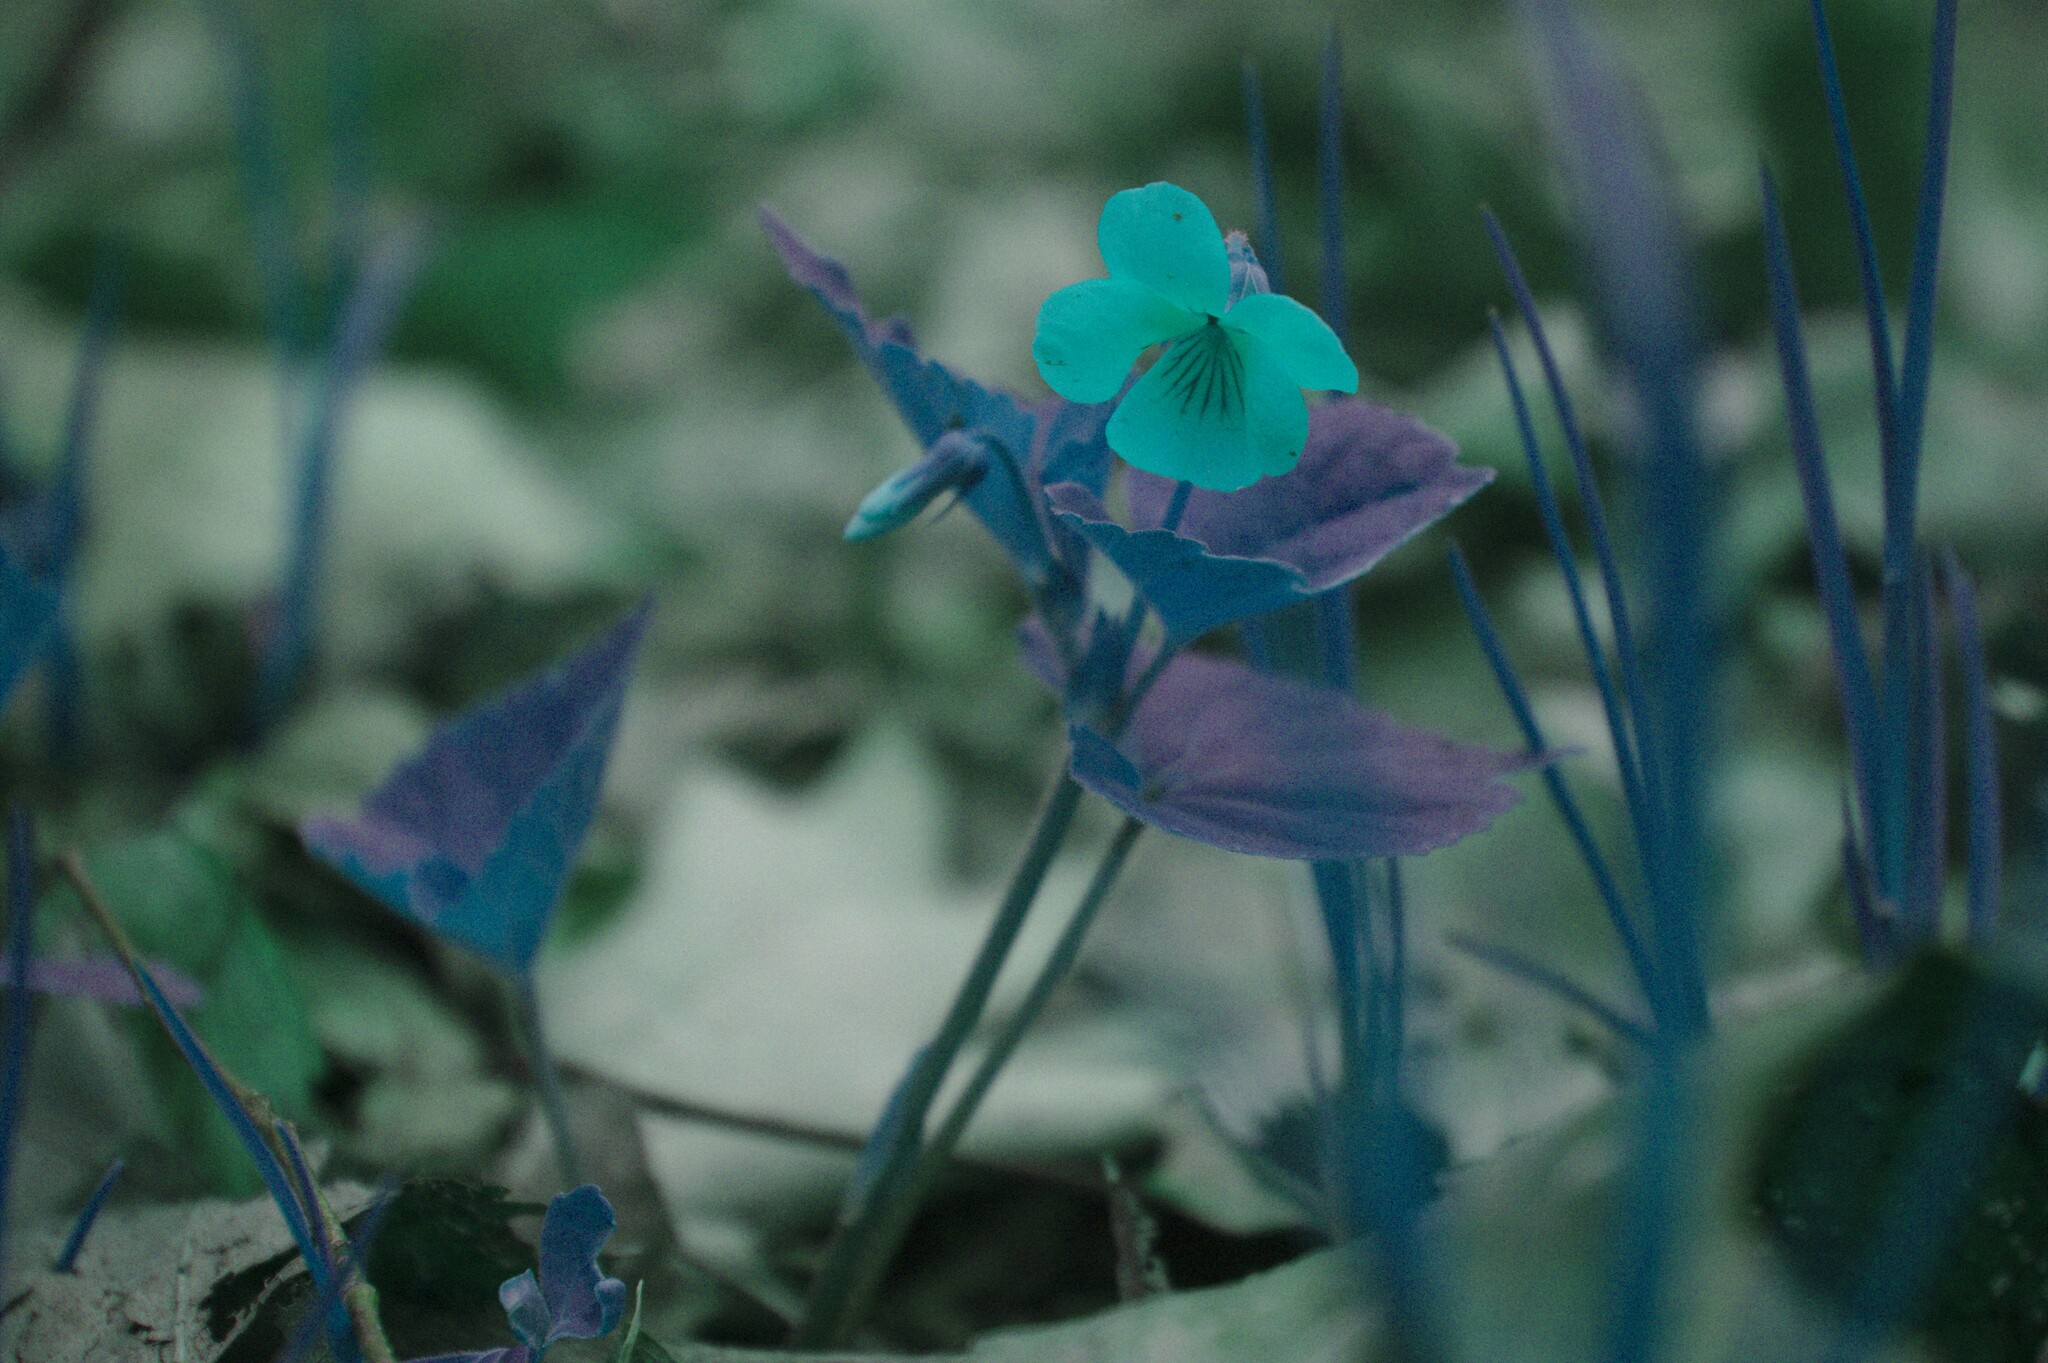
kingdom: Plantae
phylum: Tracheophyta
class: Magnoliopsida
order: Malpighiales
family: Violaceae
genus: Viola
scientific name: Viola eriocarpa
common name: Smooth yellow violet
